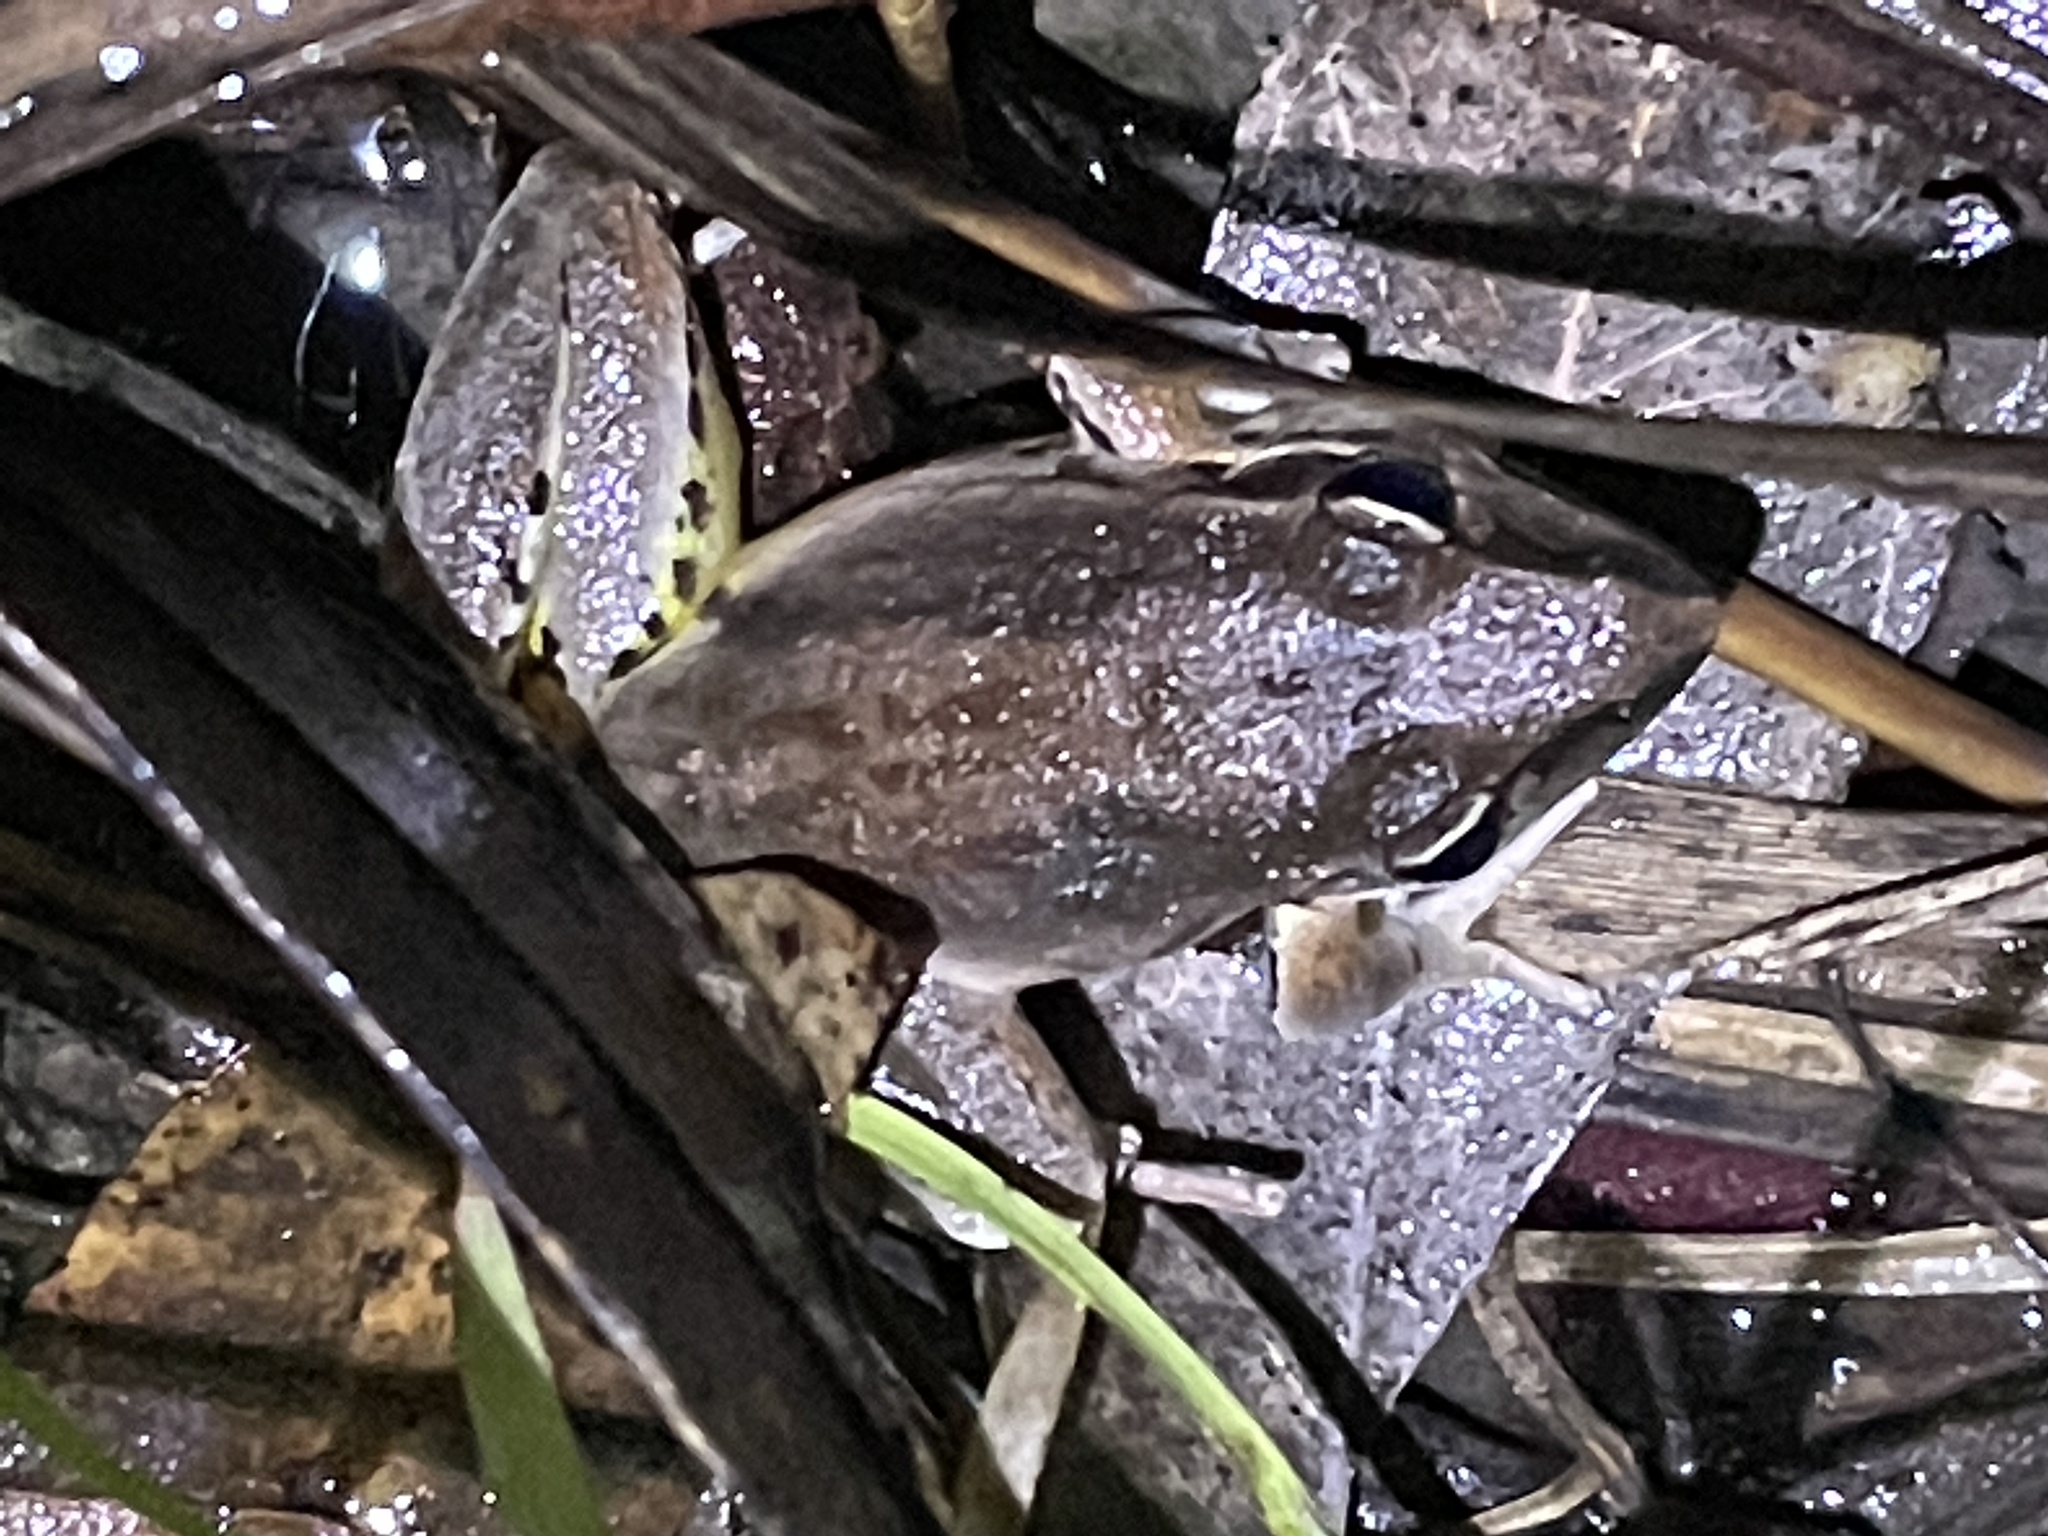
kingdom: Animalia
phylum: Chordata
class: Amphibia
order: Anura
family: Pelodryadidae
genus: Litoria
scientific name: Litoria latopalmata
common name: Broad-palmed rocket frog
